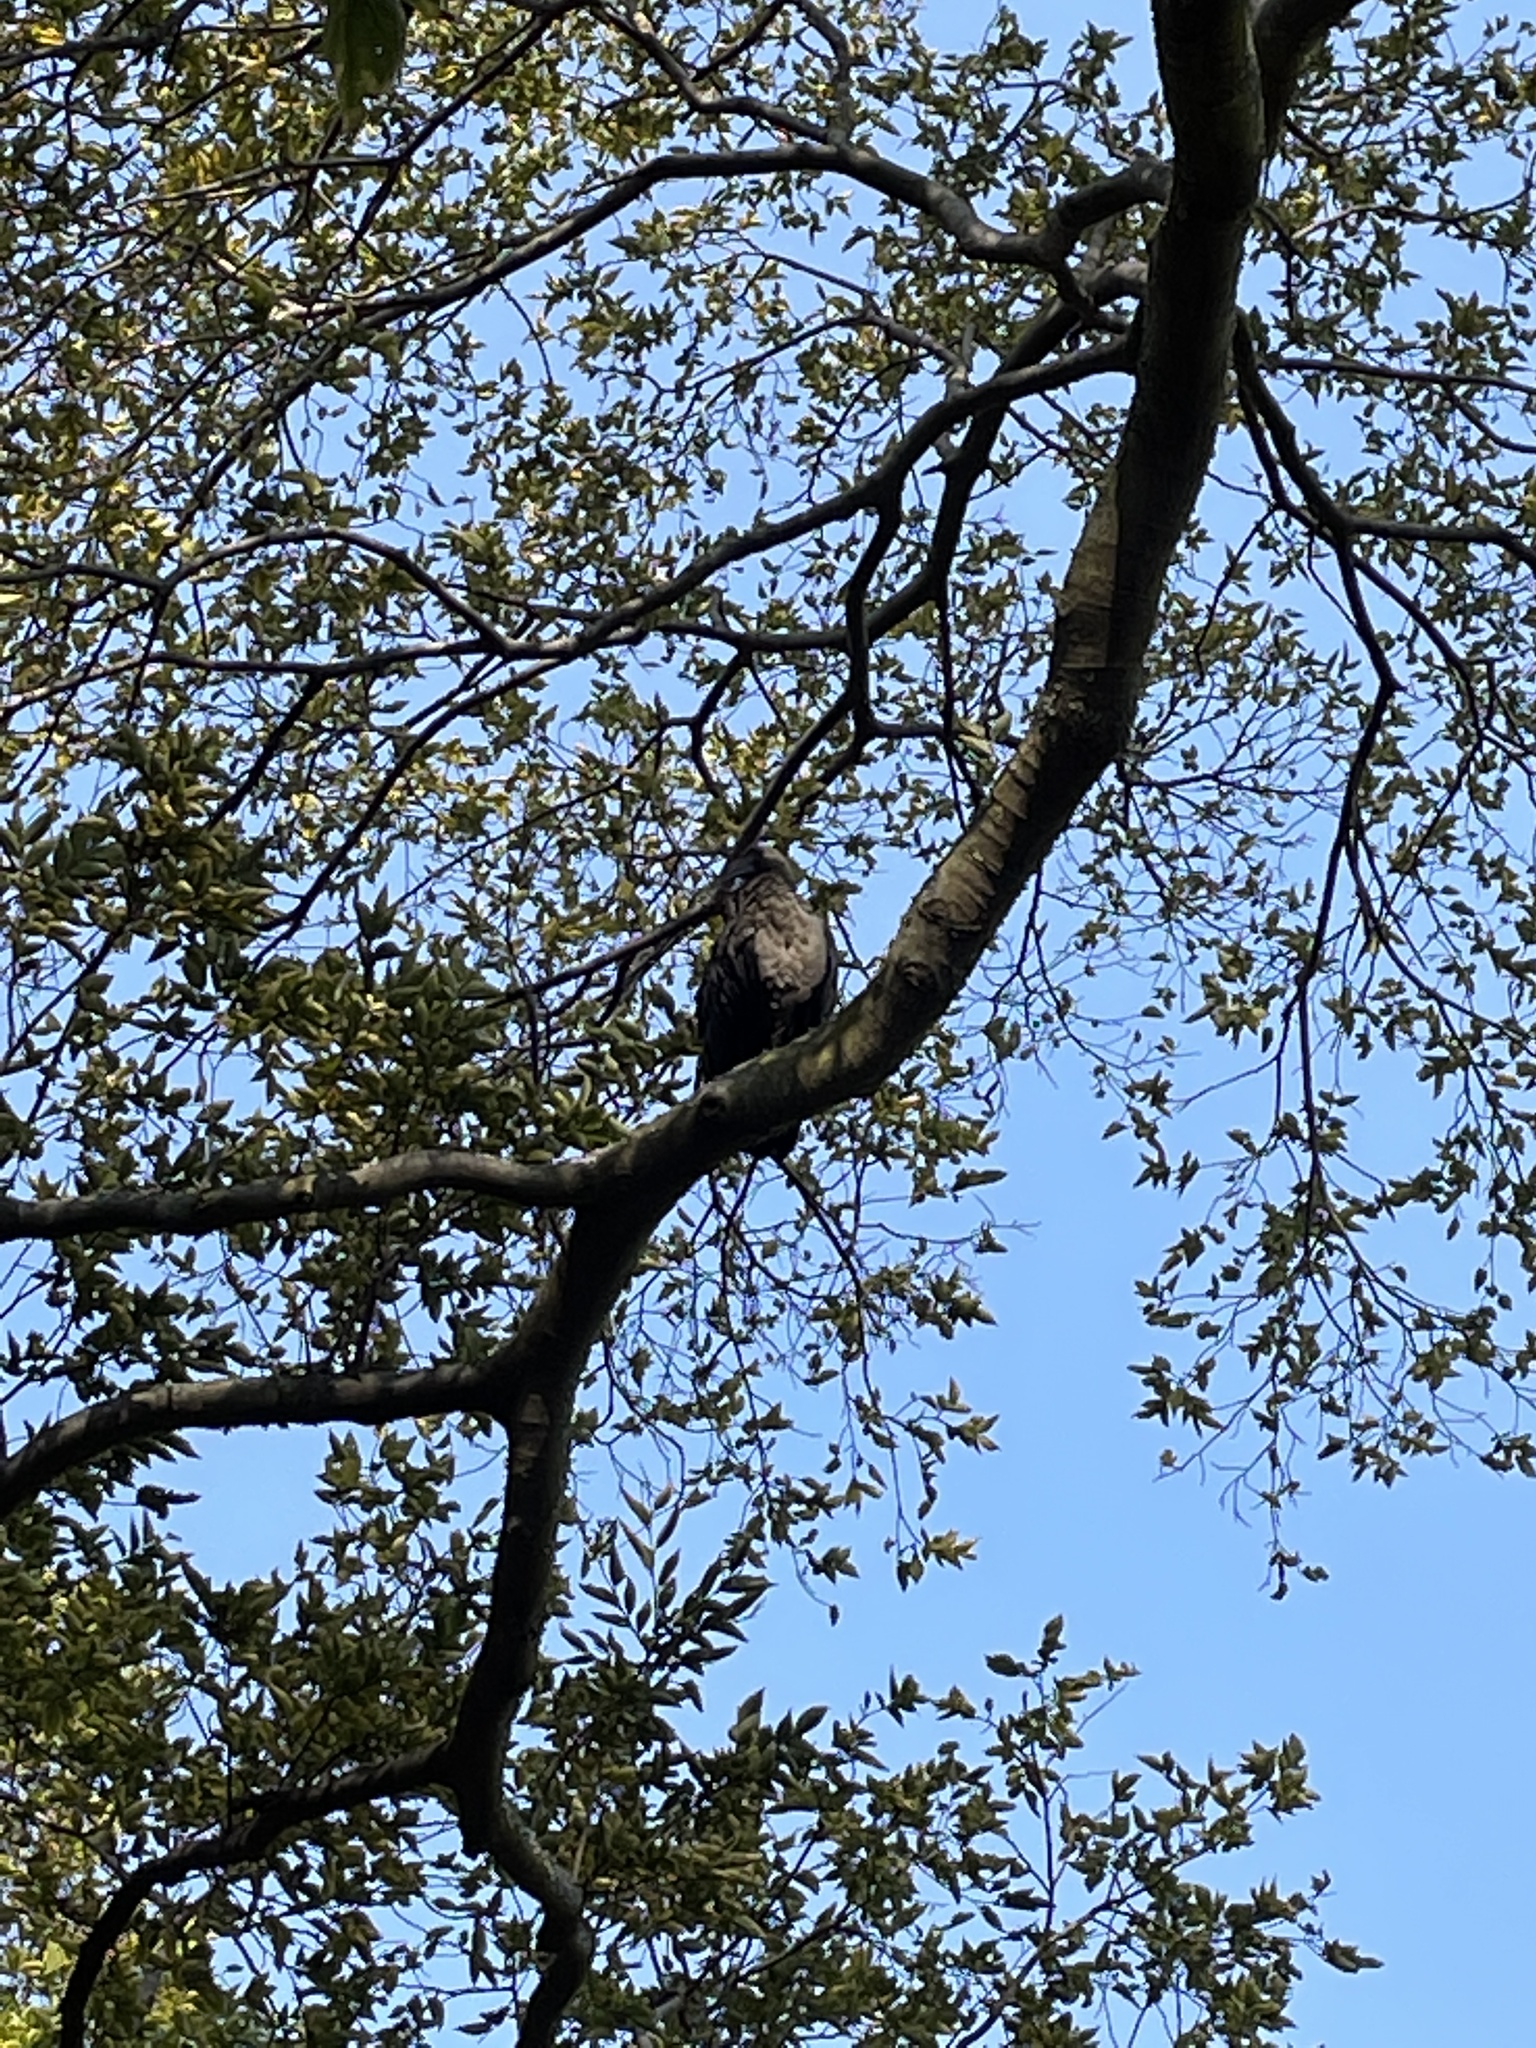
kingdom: Animalia
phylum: Chordata
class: Aves
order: Pelecaniformes
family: Threskiornithidae
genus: Bostrychia
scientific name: Bostrychia hagedash
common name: Hadada ibis
